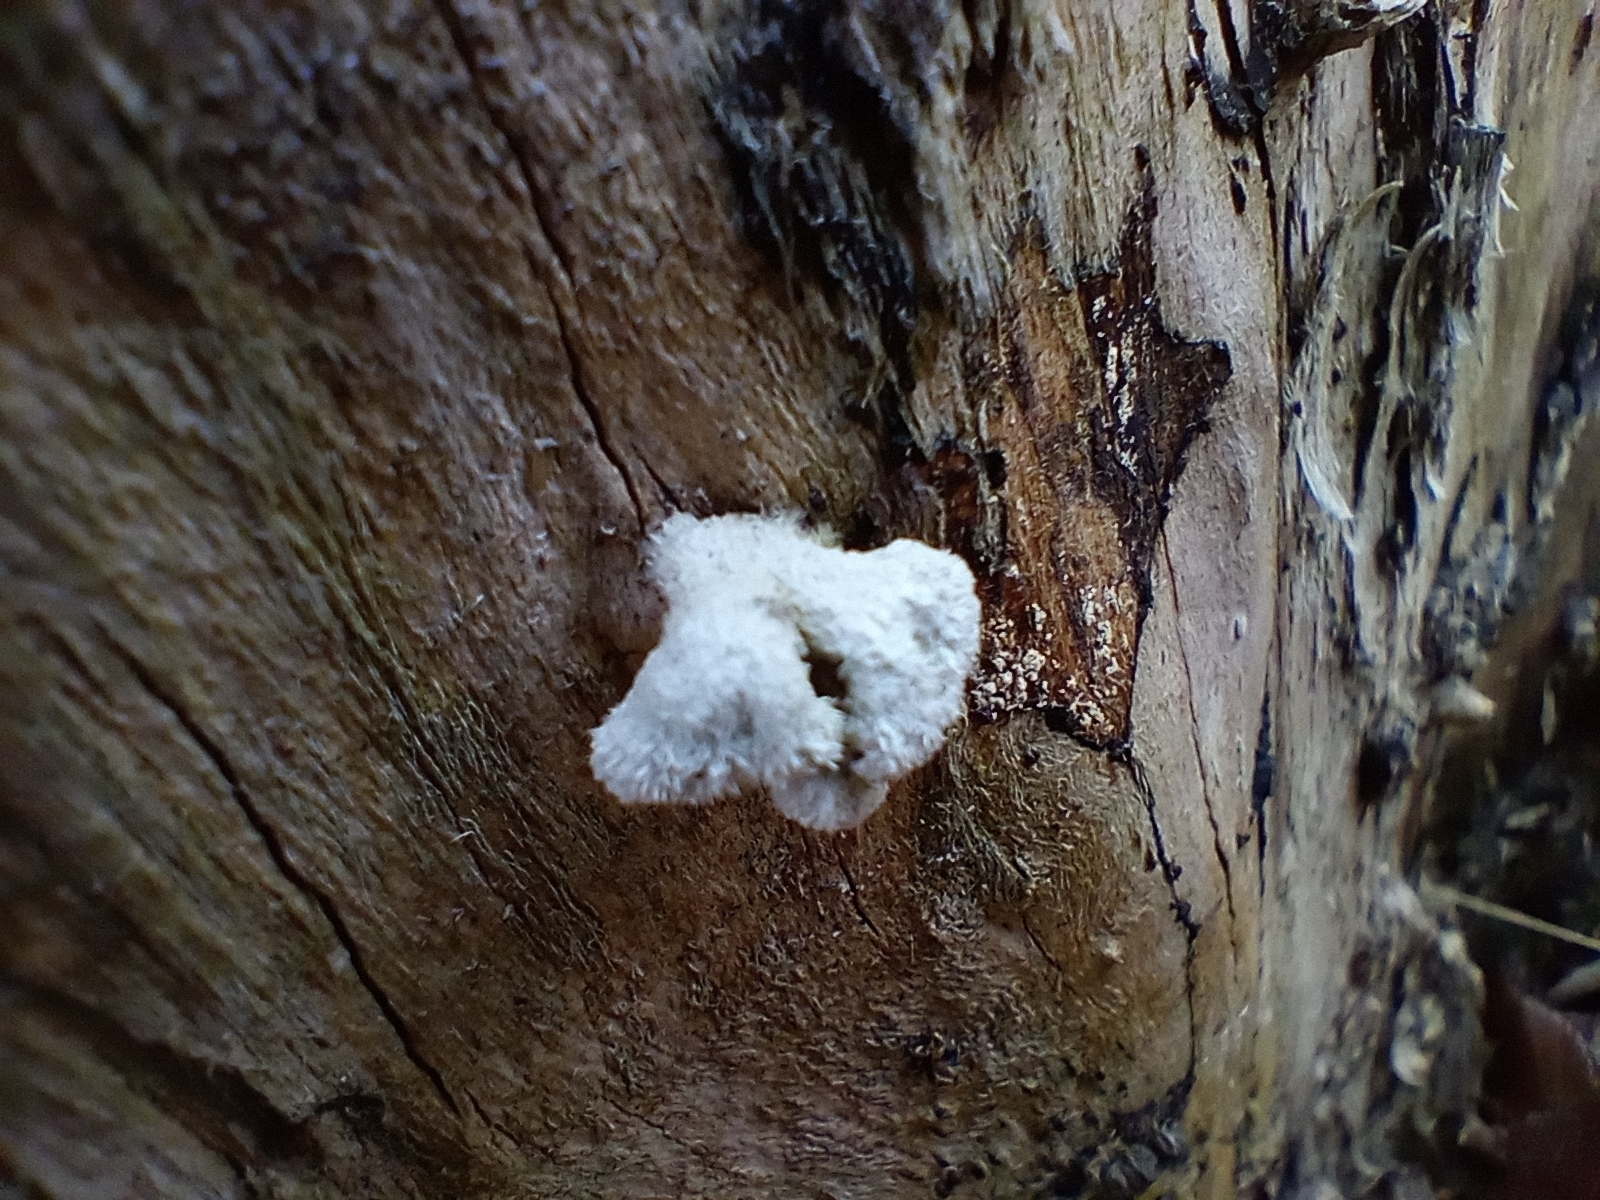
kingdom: Fungi
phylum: Basidiomycota
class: Agaricomycetes
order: Agaricales
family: Schizophyllaceae
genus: Schizophyllum
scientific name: Schizophyllum commune
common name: Common porecrust
